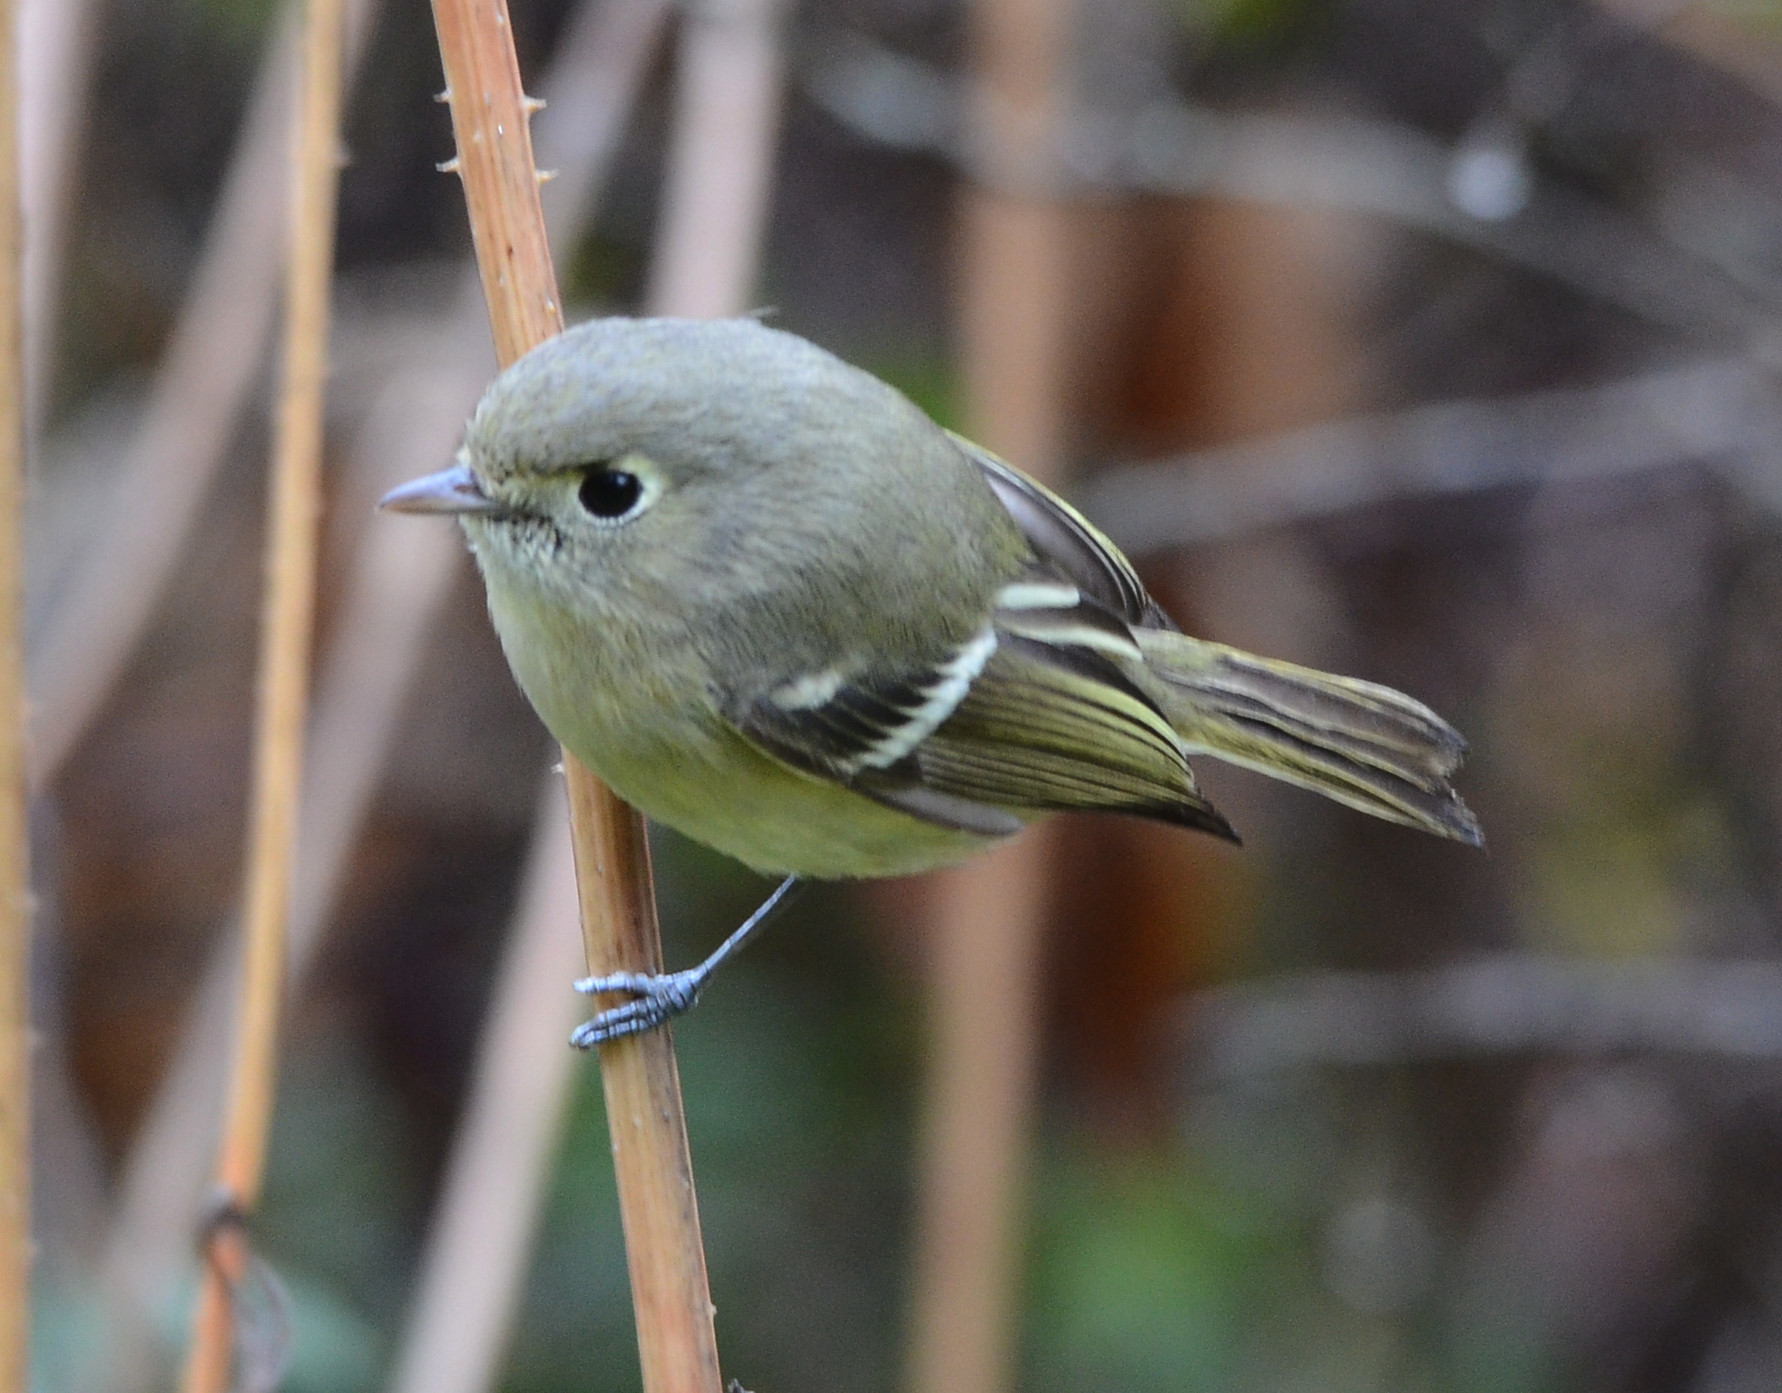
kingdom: Animalia
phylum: Chordata
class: Aves
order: Passeriformes
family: Vireonidae
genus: Vireo
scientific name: Vireo huttoni
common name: Hutton's vireo
